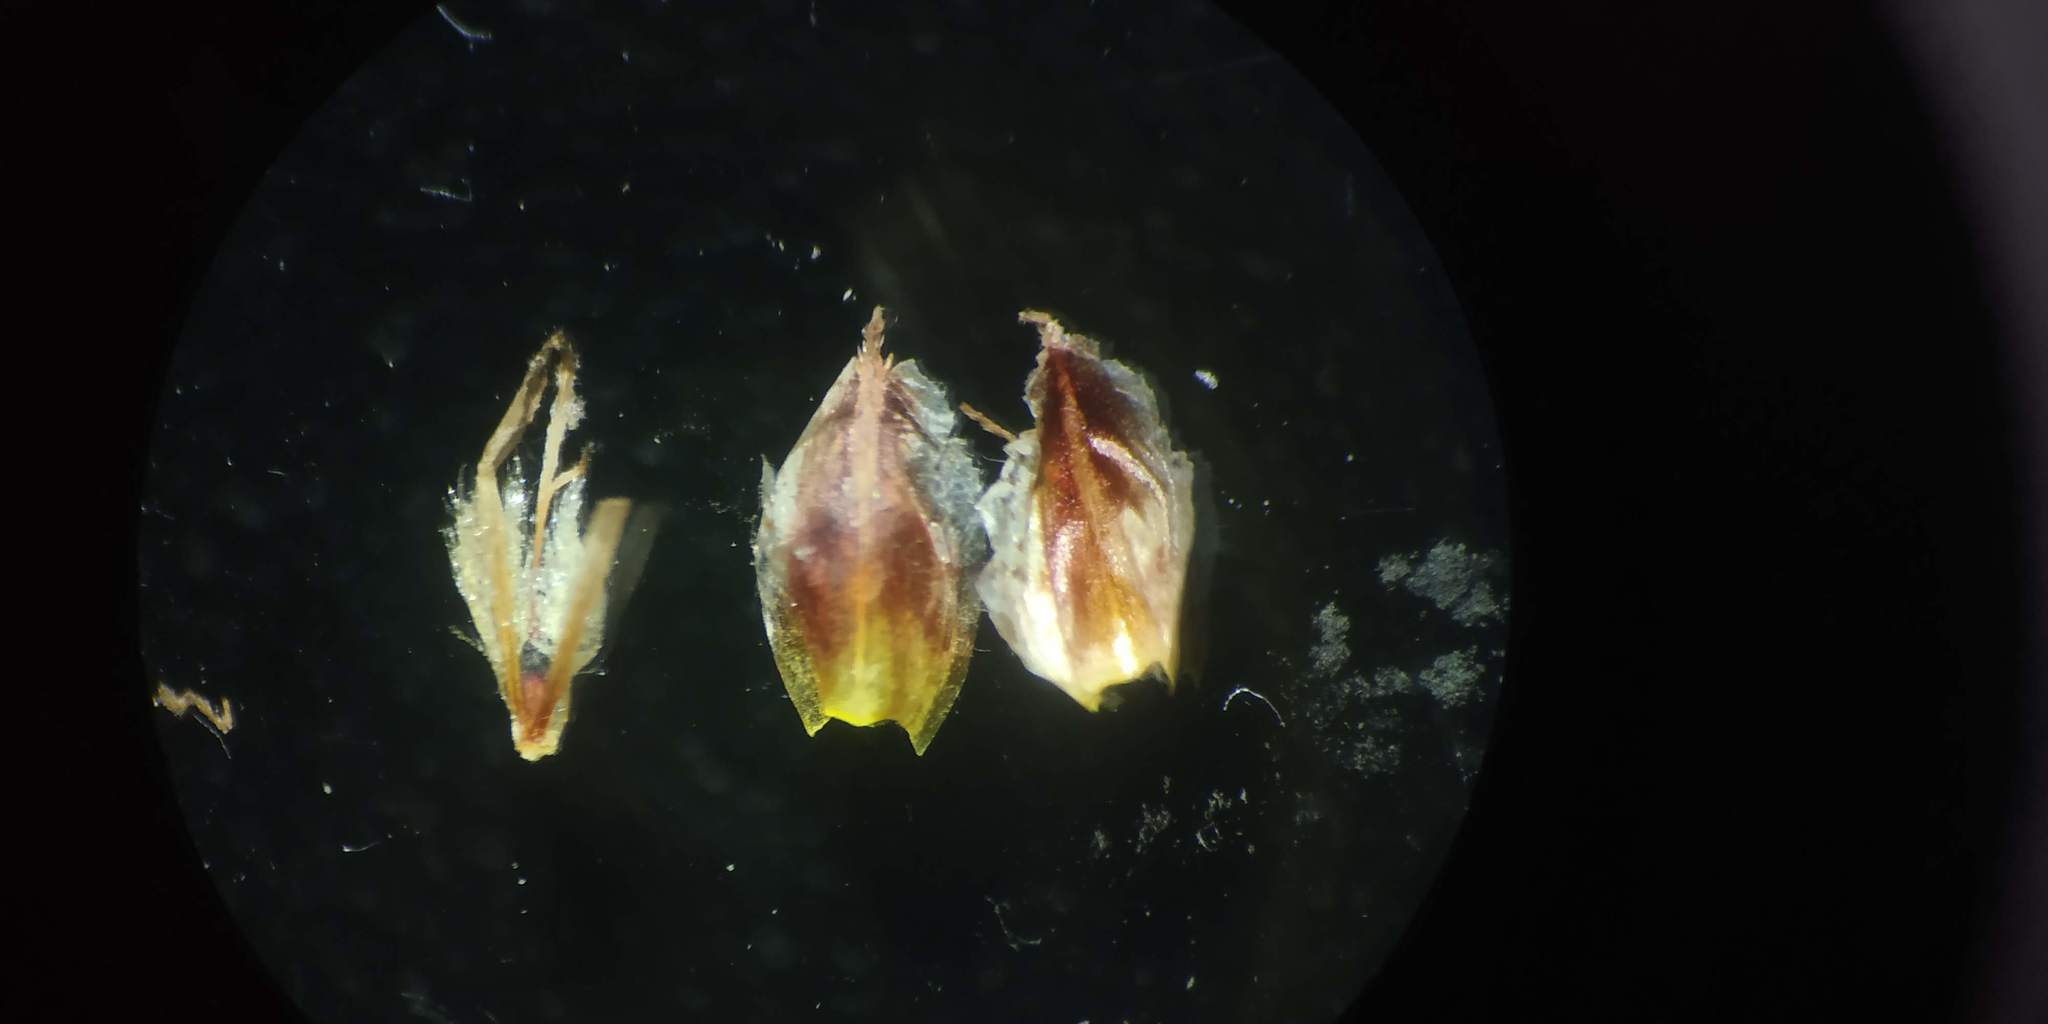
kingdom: Plantae
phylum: Tracheophyta
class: Liliopsida
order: Poales
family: Cyperaceae
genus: Schoenoplectus
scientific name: Schoenoplectus subulatus
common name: Coast club-rush
